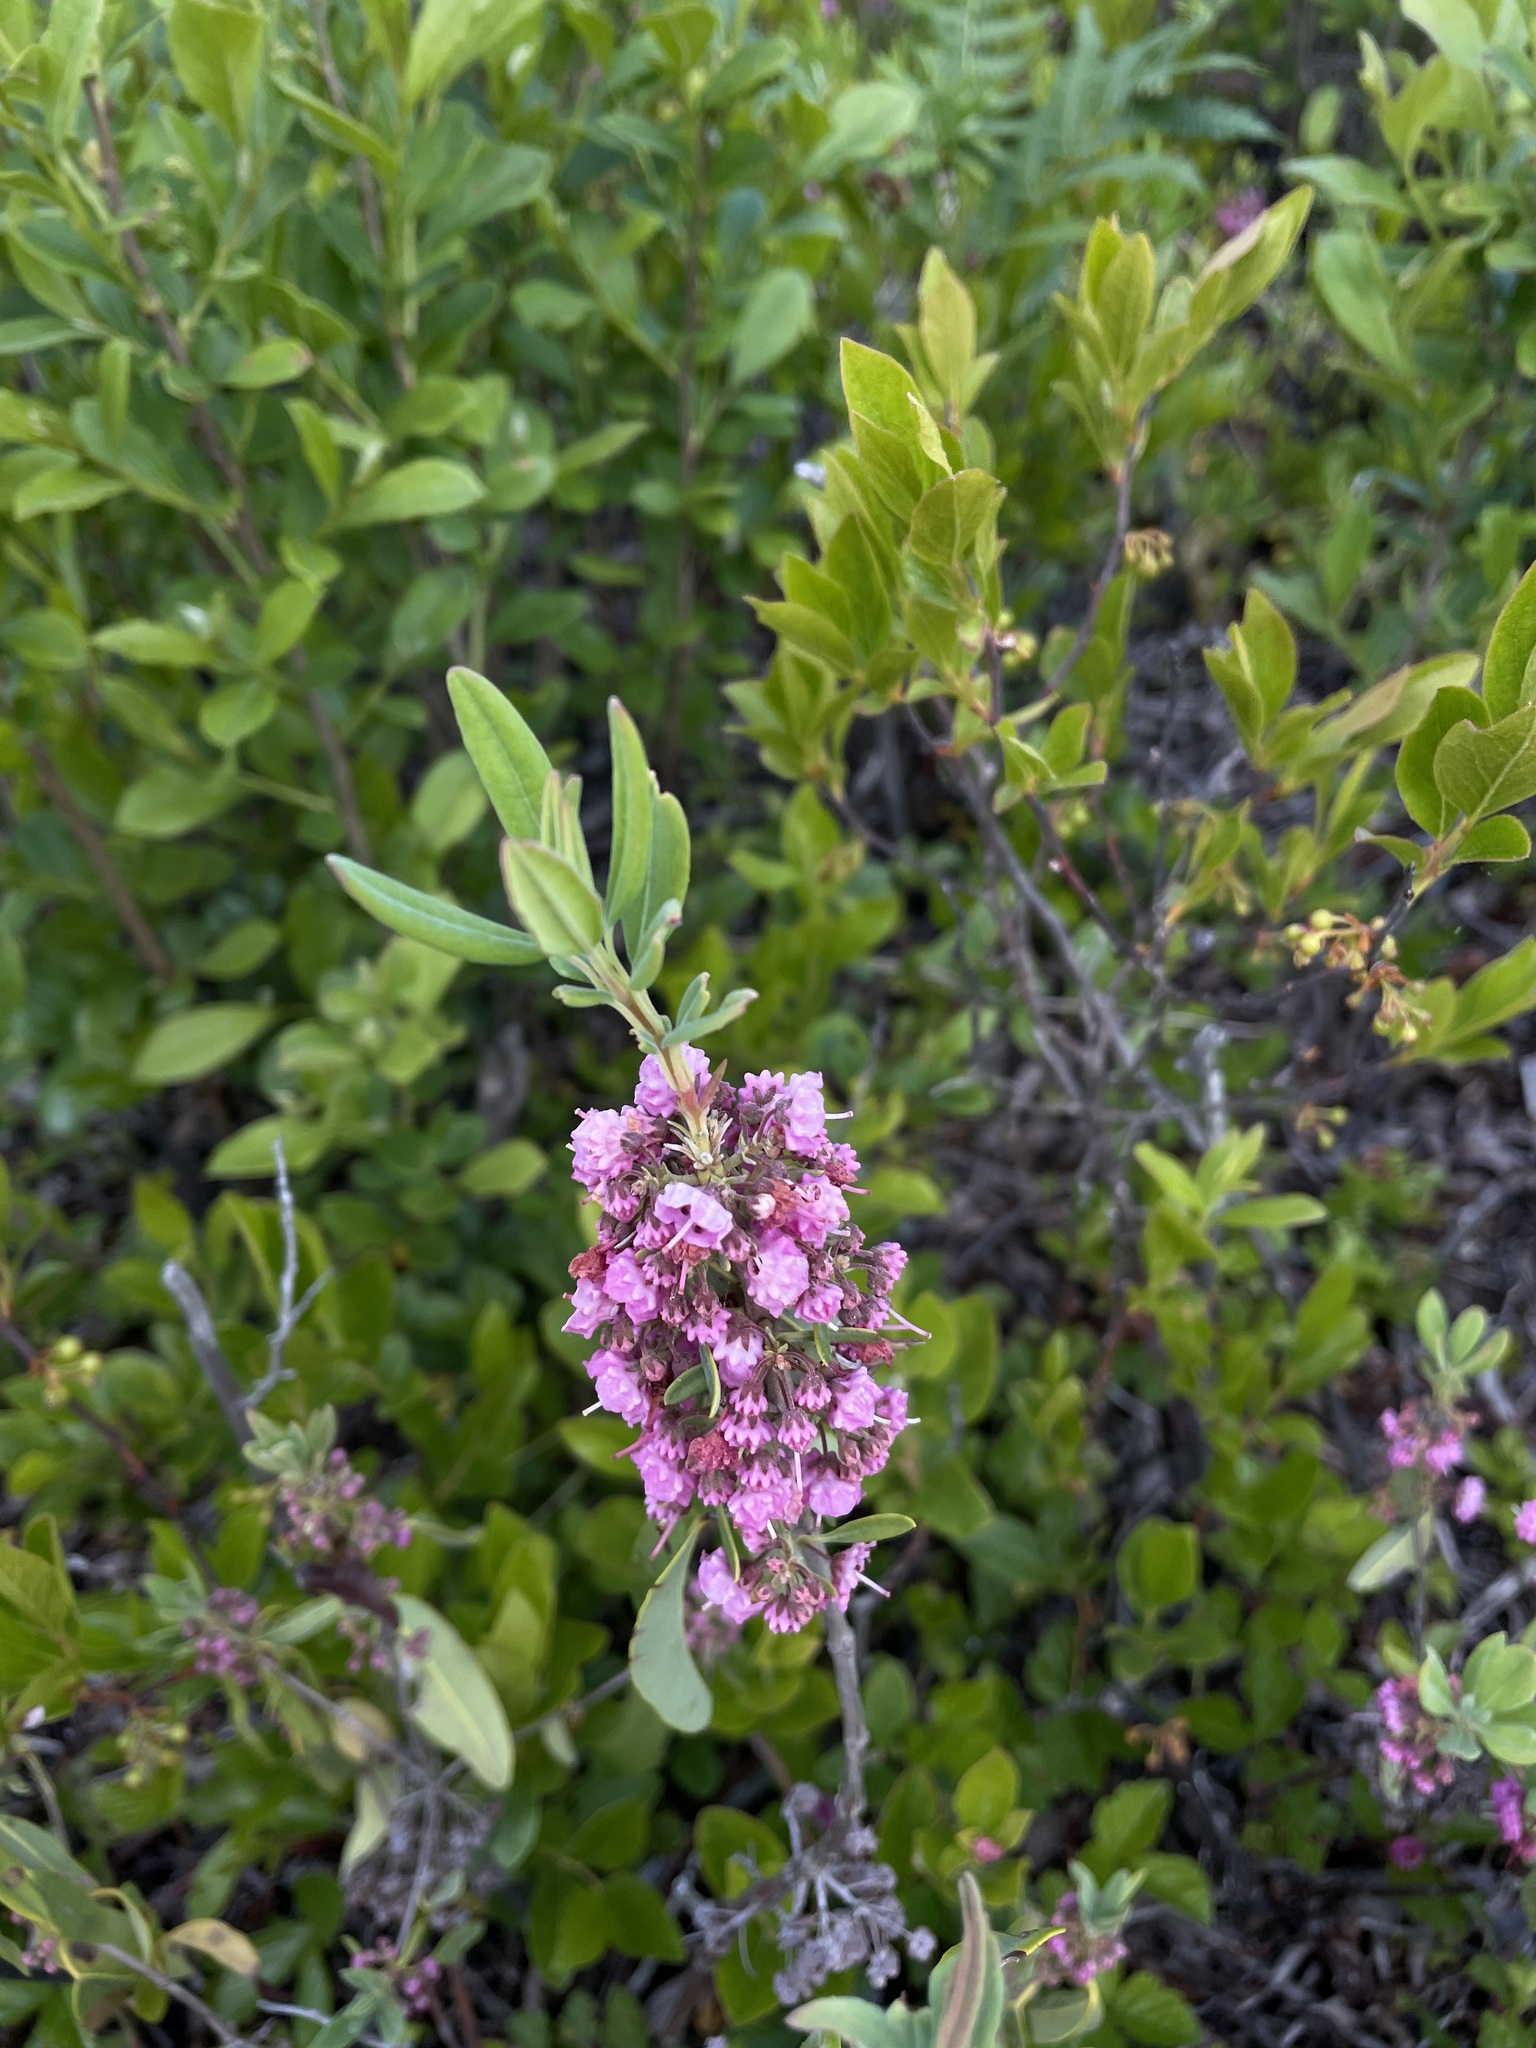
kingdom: Plantae
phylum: Tracheophyta
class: Magnoliopsida
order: Ericales
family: Ericaceae
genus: Kalmia
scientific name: Kalmia angustifolia
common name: Sheep-laurel
